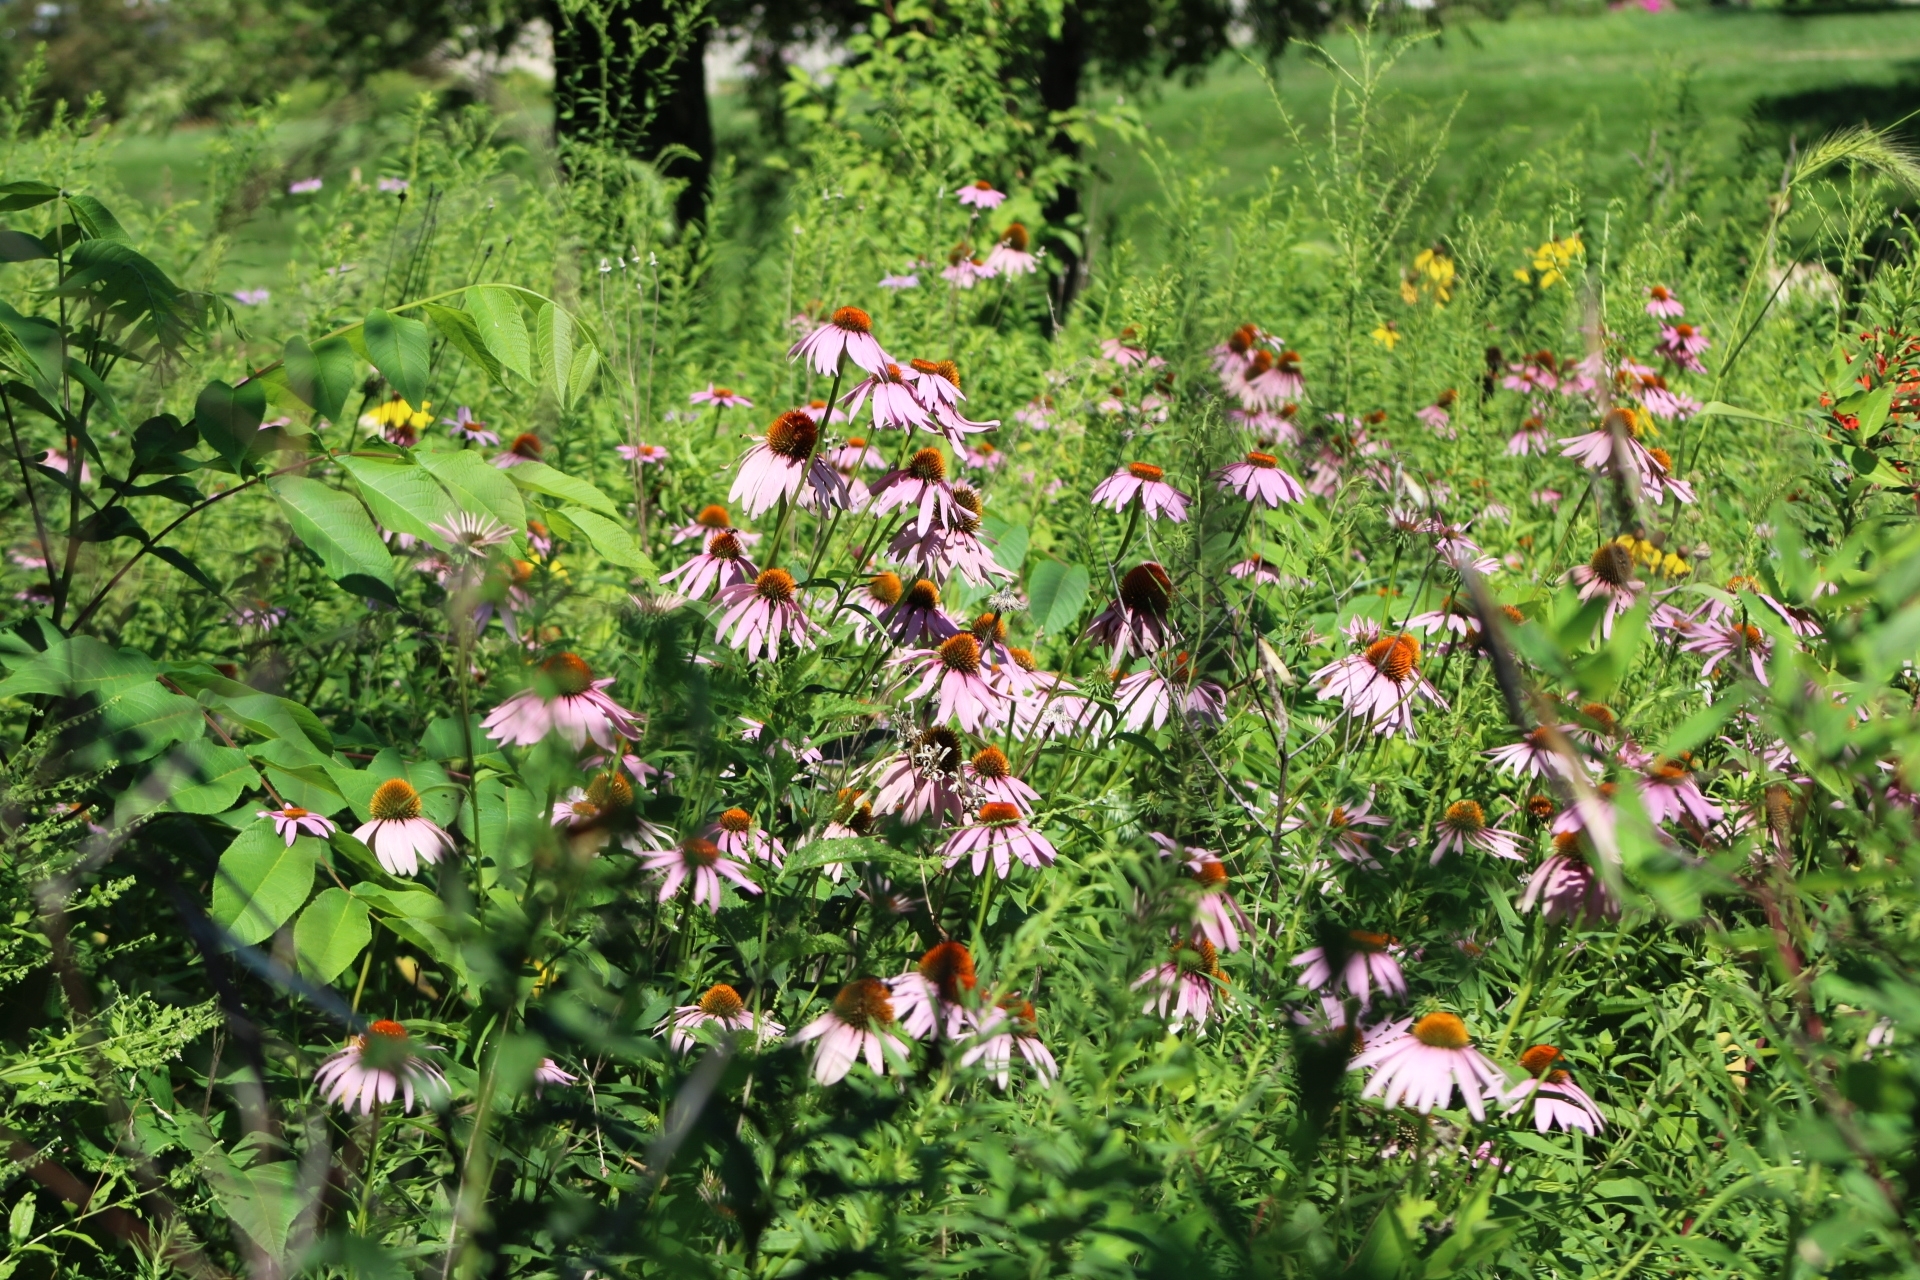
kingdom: Plantae
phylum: Tracheophyta
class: Magnoliopsida
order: Asterales
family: Asteraceae
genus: Echinacea
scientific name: Echinacea purpurea
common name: Broad-leaved purple coneflower
